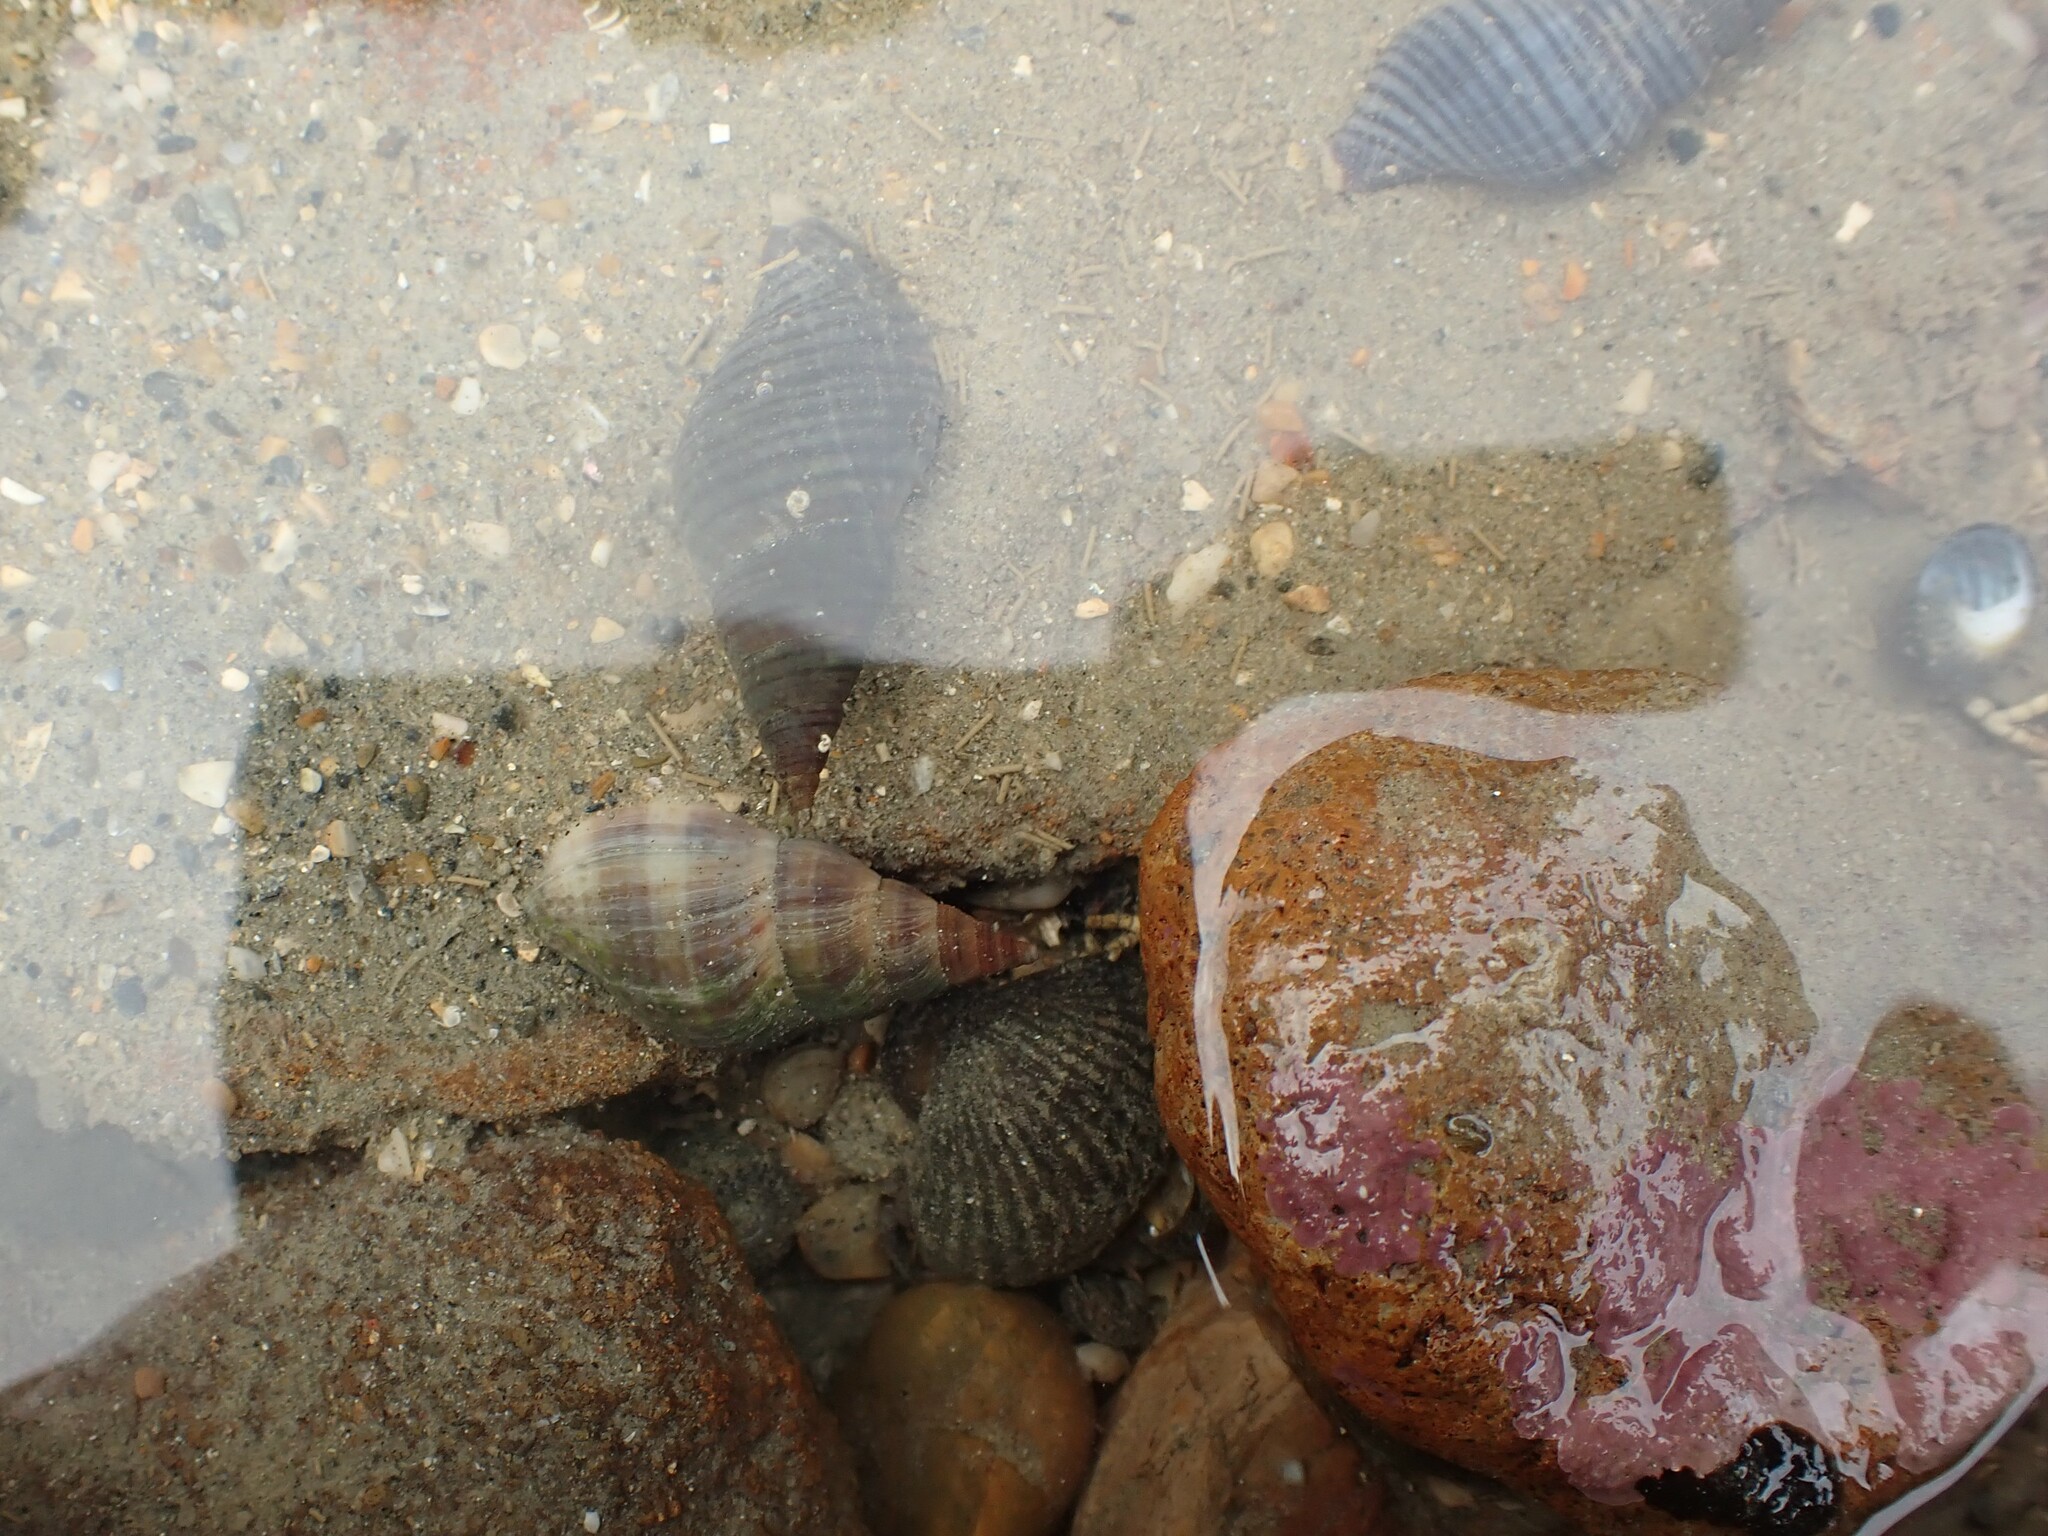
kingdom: Animalia
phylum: Mollusca
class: Gastropoda
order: Neogastropoda
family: Tudiclidae
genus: Buccinulum
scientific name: Buccinulum littorinoides
